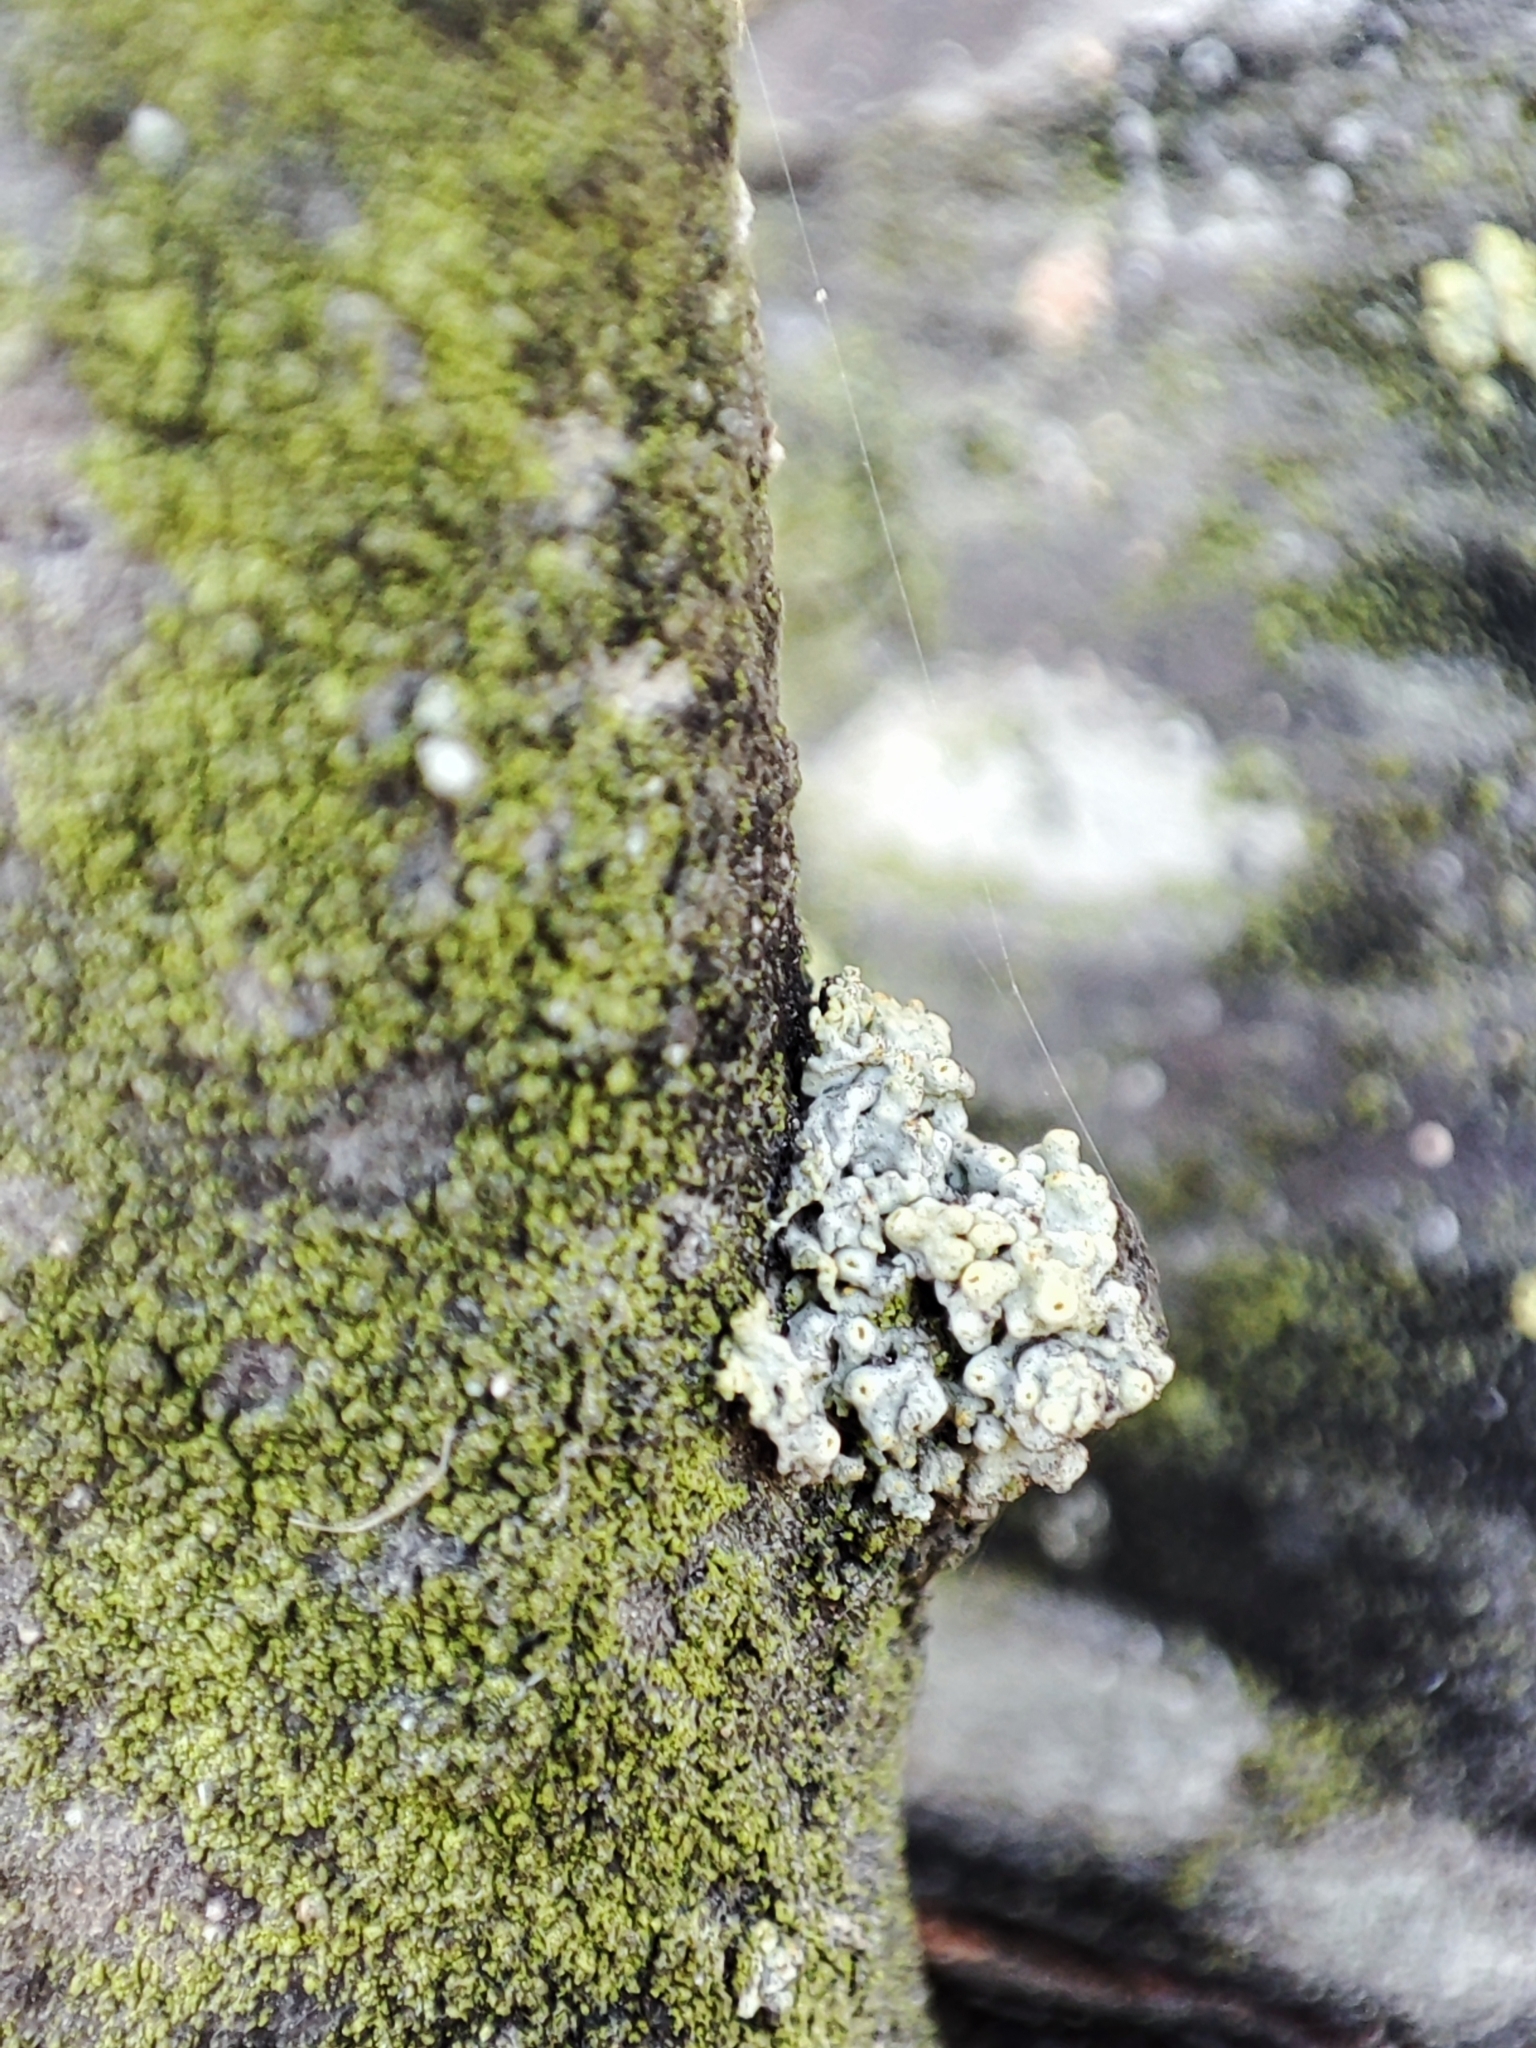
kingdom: Fungi
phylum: Ascomycota
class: Lecanoromycetes
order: Teloschistales
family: Teloschistaceae
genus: Xanthoria
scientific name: Xanthoria parietina
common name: Common orange lichen
